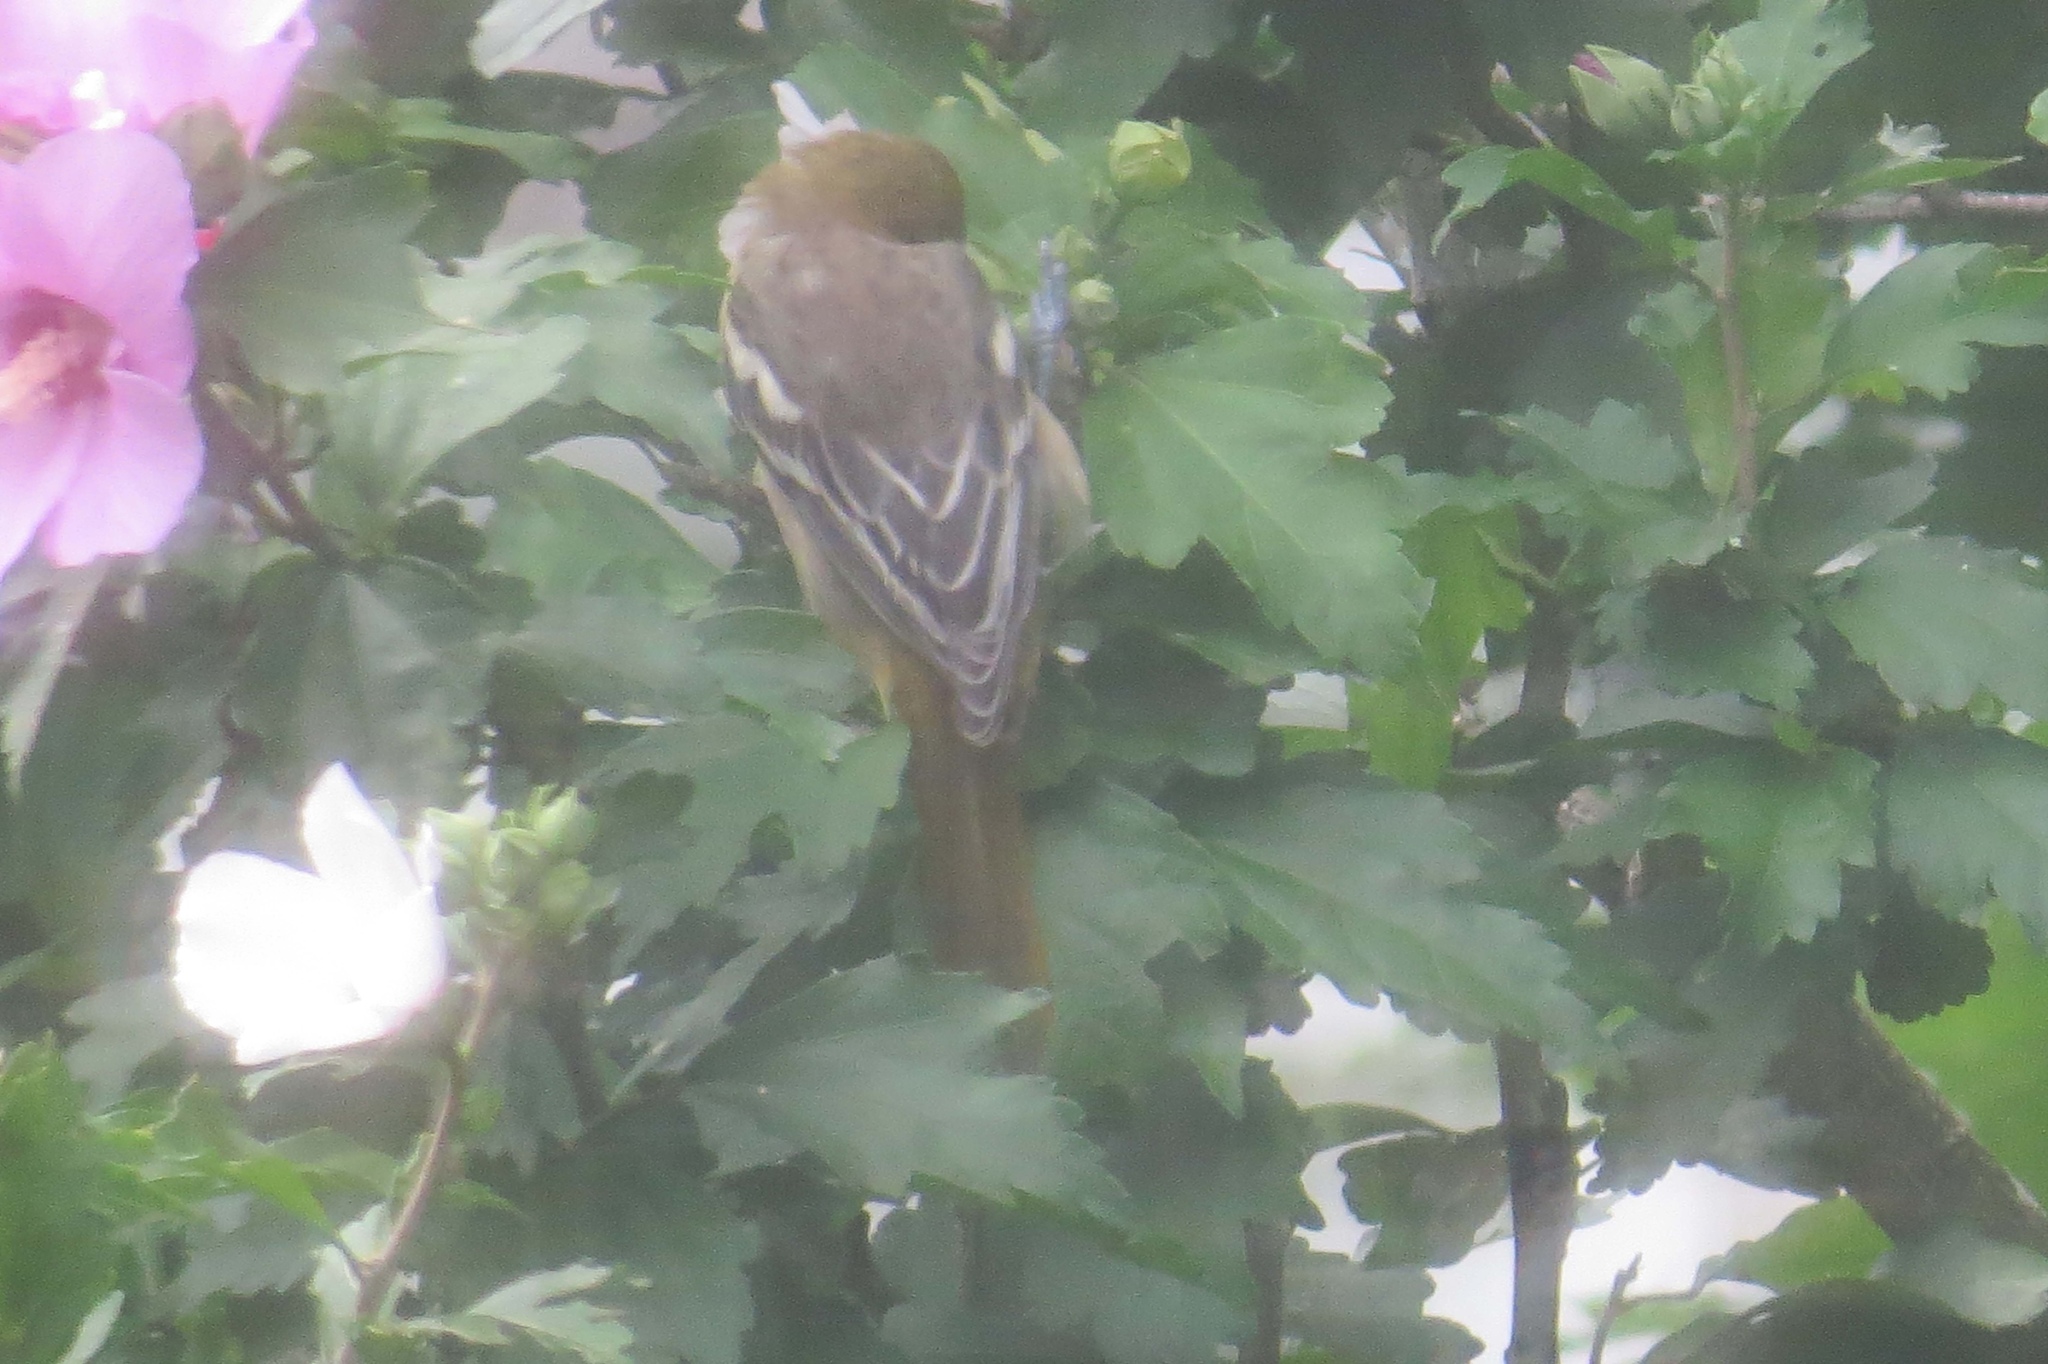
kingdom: Animalia
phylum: Chordata
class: Aves
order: Passeriformes
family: Icteridae
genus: Icterus
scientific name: Icterus galbula
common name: Baltimore oriole
